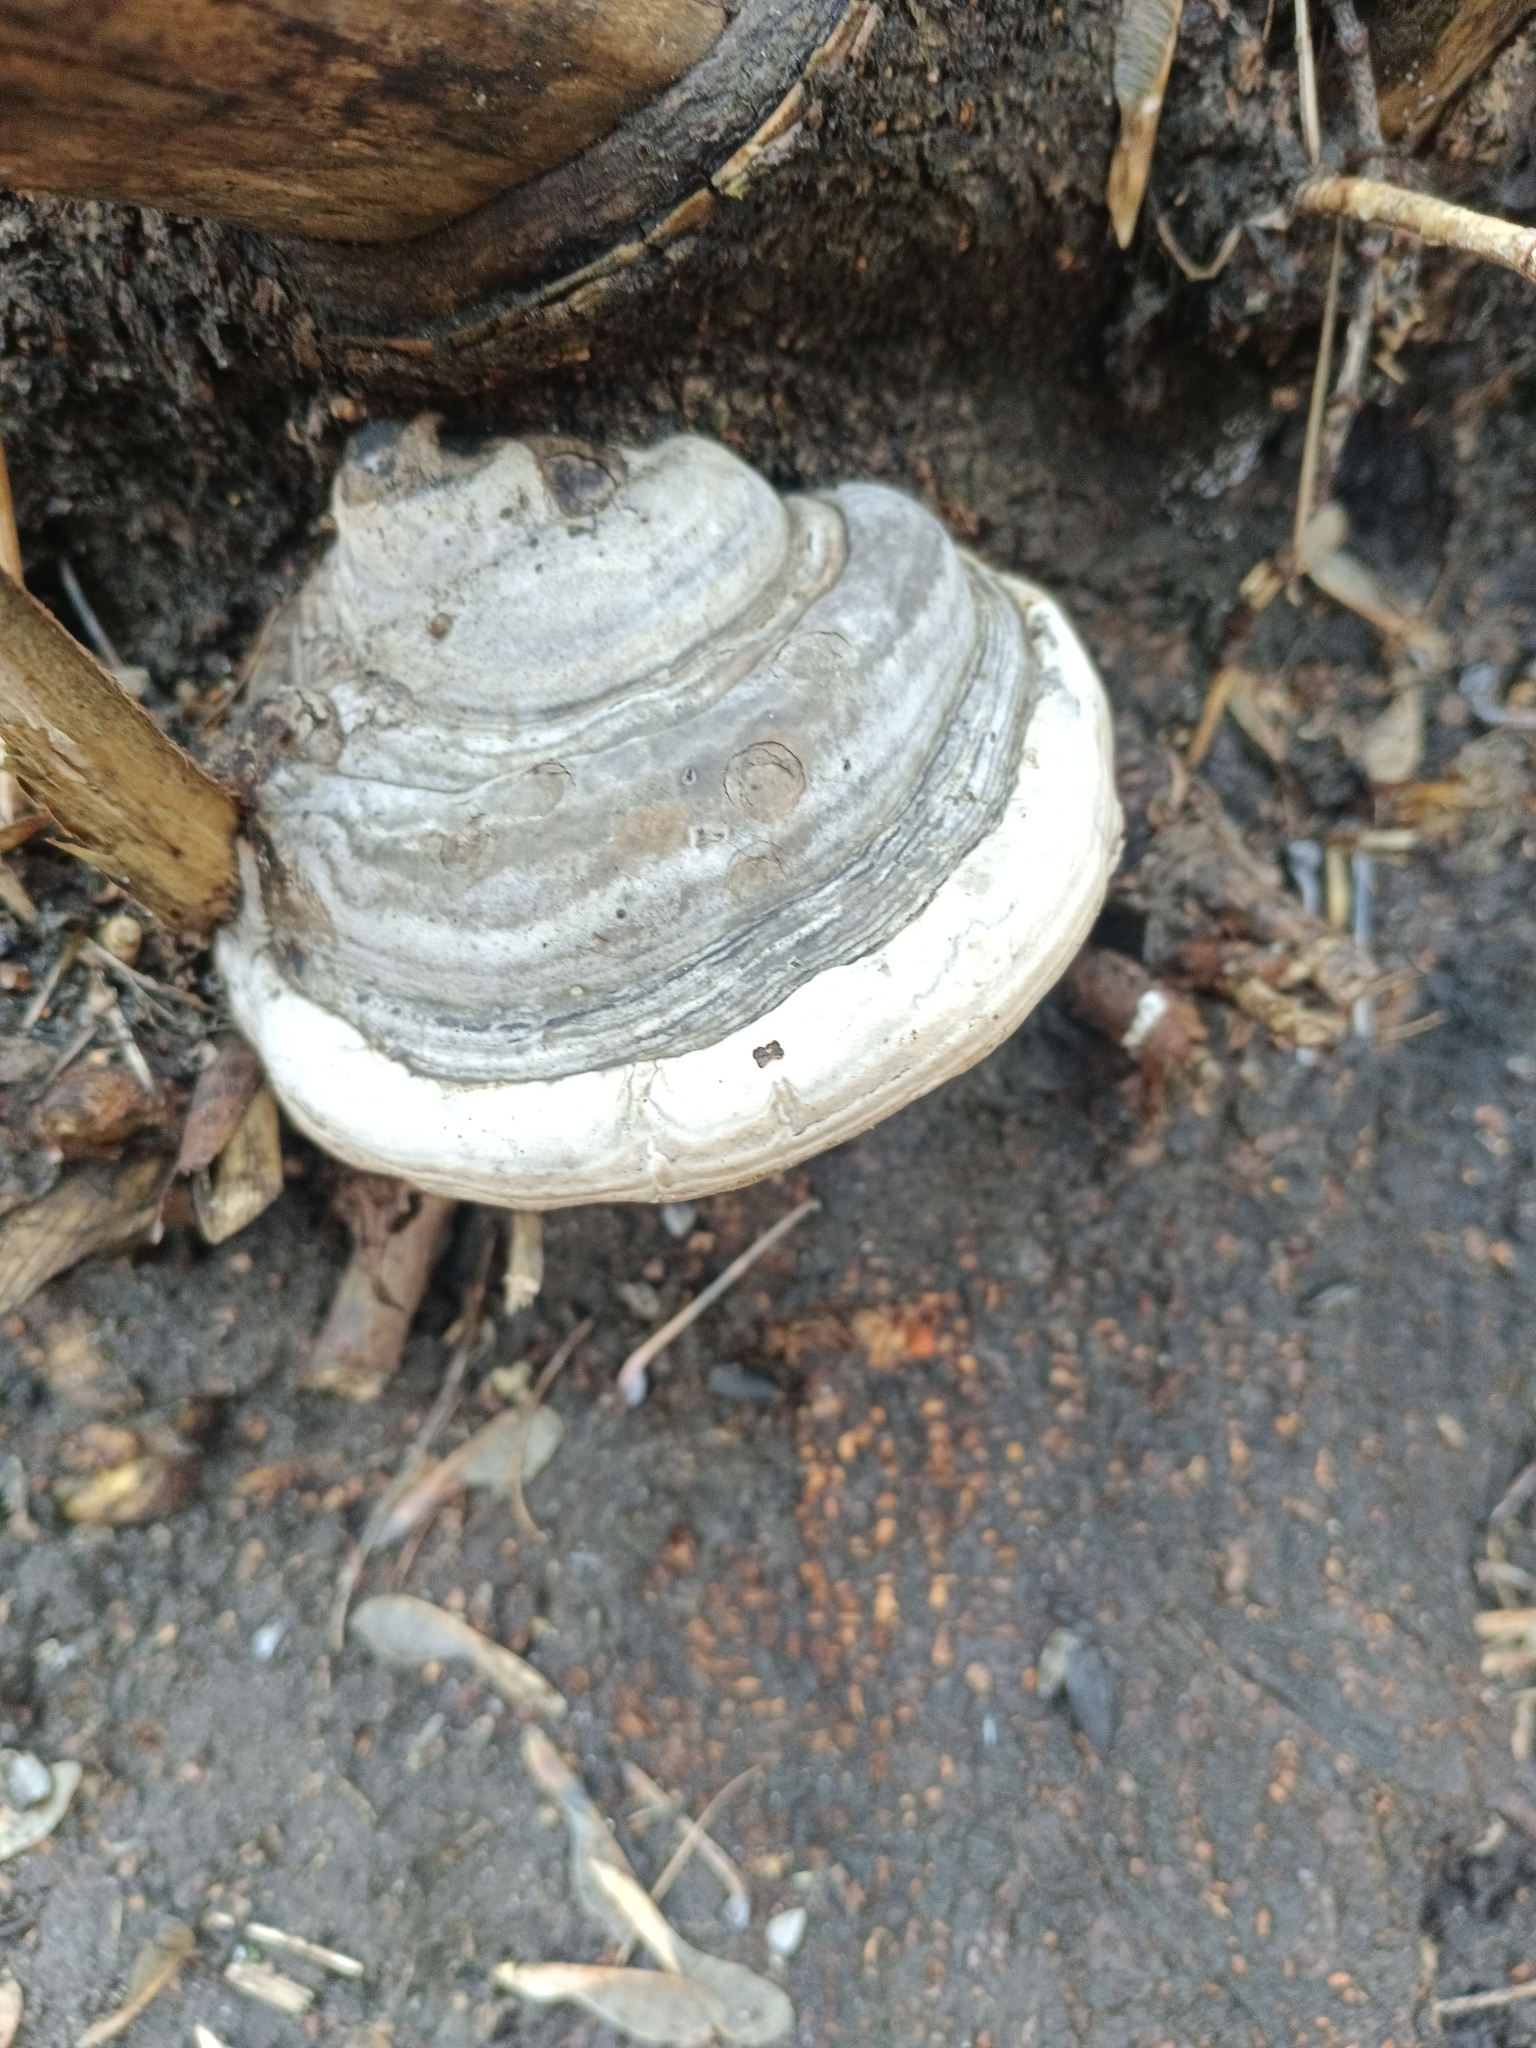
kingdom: Fungi
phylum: Basidiomycota
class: Agaricomycetes
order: Polyporales
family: Polyporaceae
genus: Fomes
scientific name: Fomes fomentarius
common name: Hoof fungus
